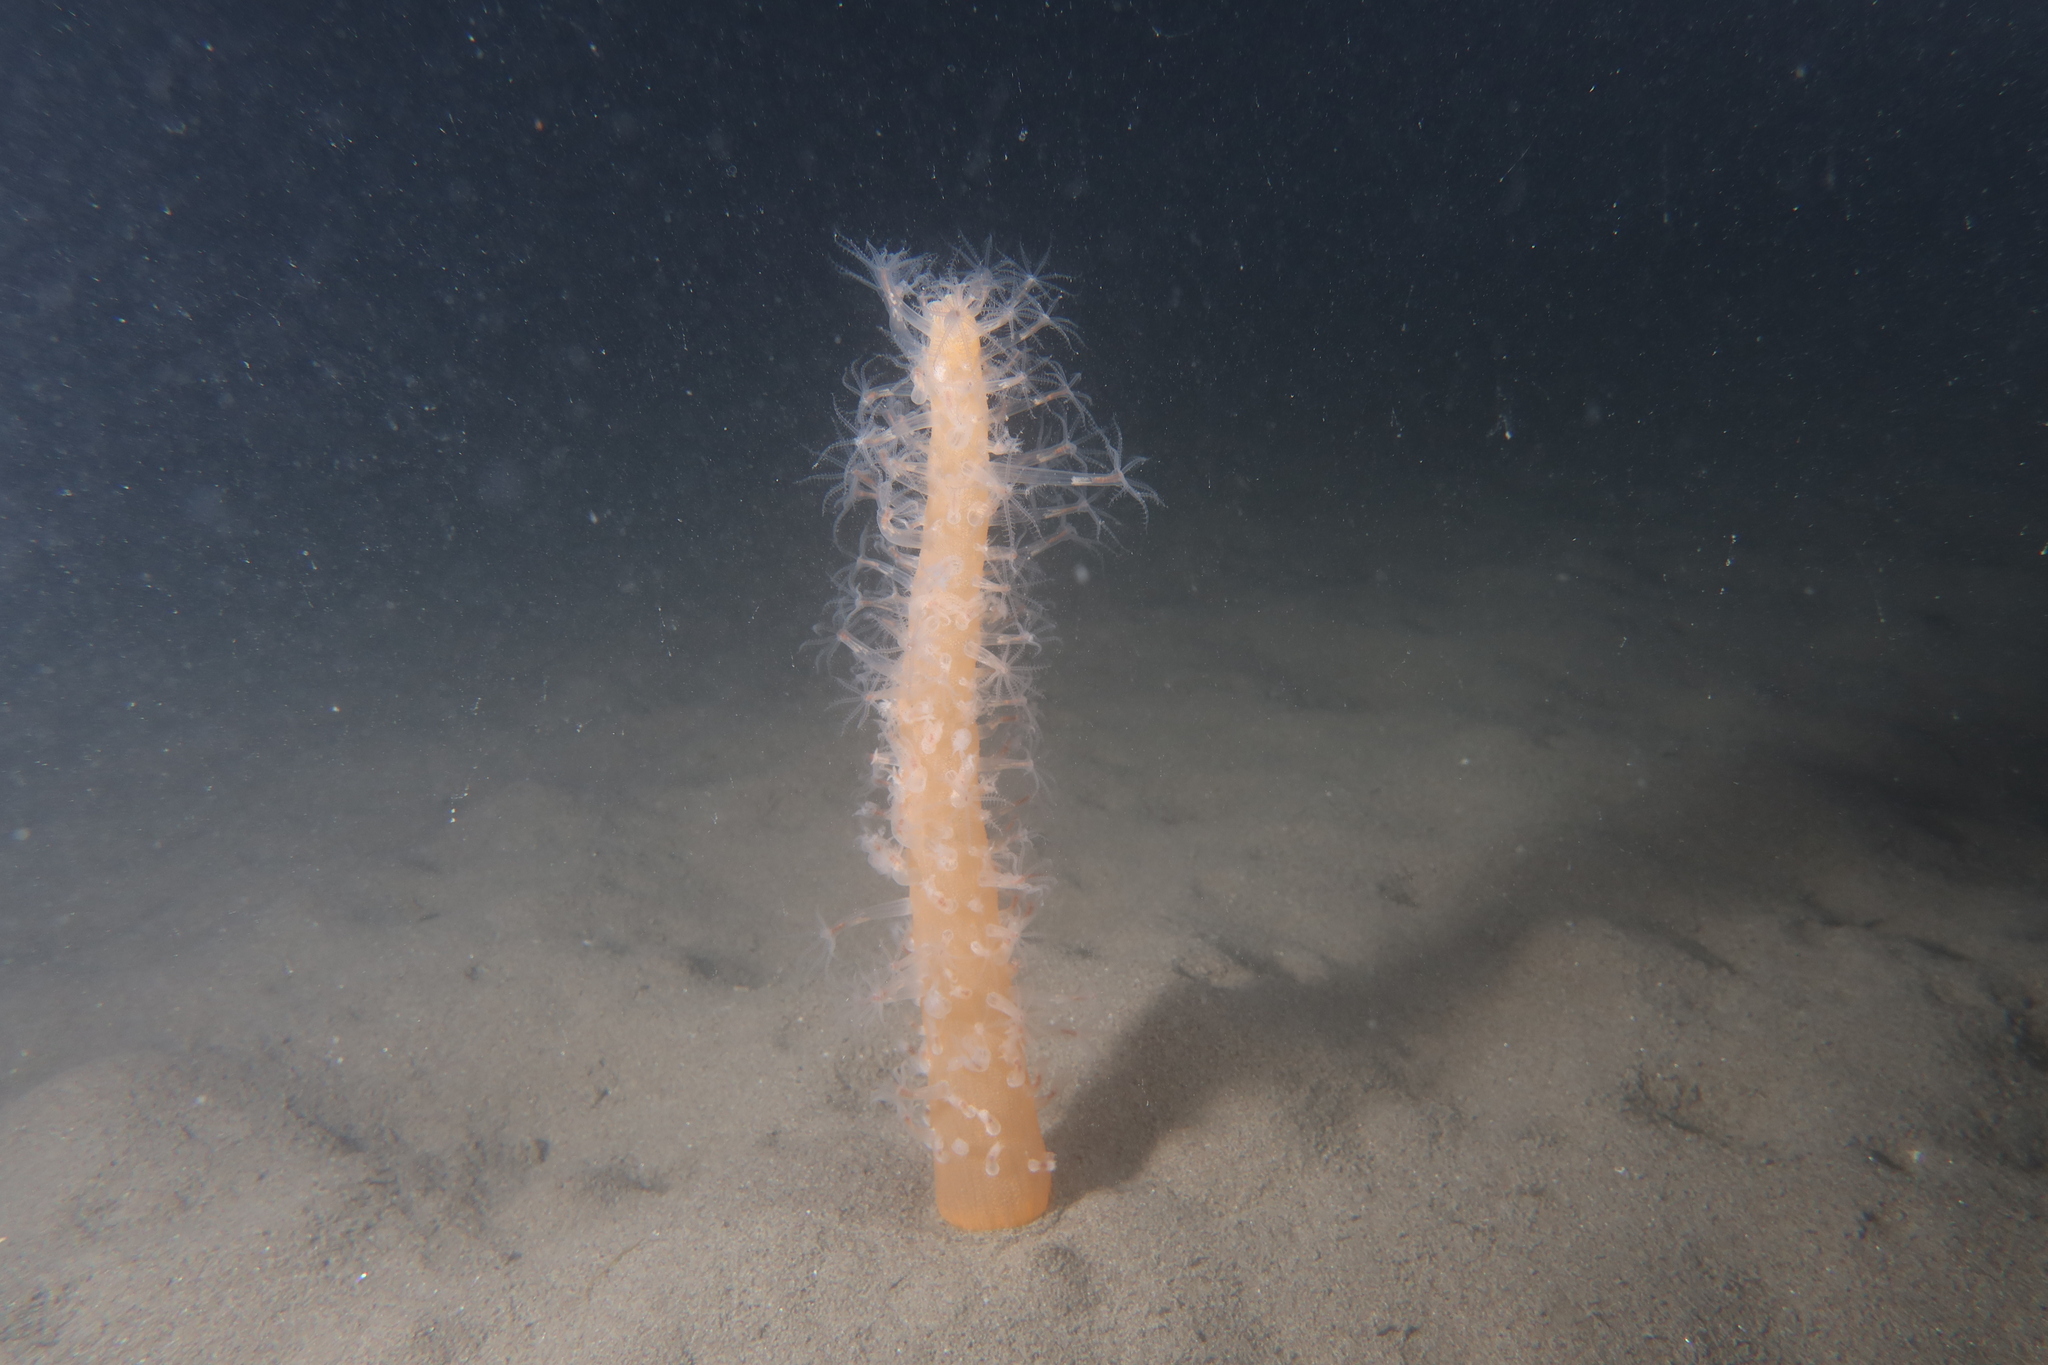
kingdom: Animalia
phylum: Cnidaria
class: Anthozoa
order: Scleralcyonacea
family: Veretillidae
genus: Veretillum
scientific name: Veretillum cynomorium
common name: Finger-shaped sea-pen
